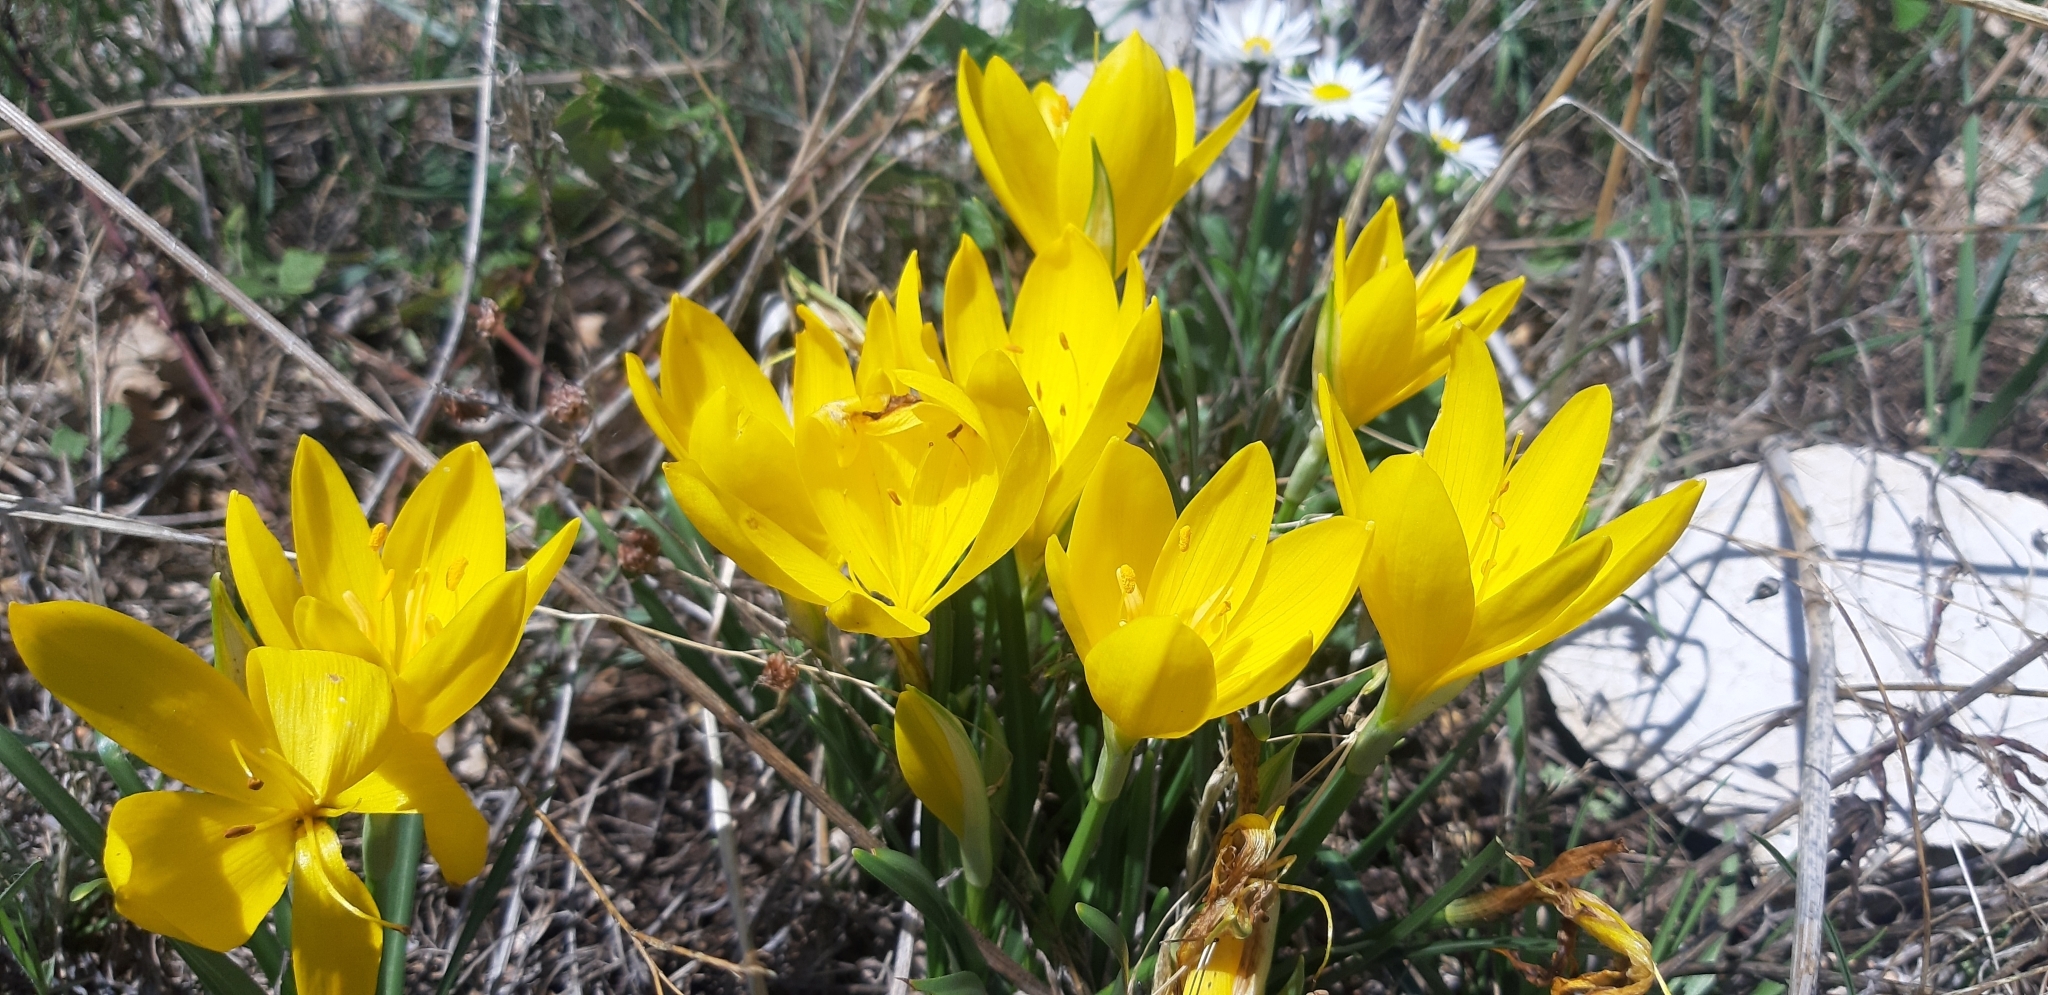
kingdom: Plantae
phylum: Tracheophyta
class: Liliopsida
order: Asparagales
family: Amaryllidaceae
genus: Sternbergia
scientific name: Sternbergia lutea
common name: Winter daffodil
